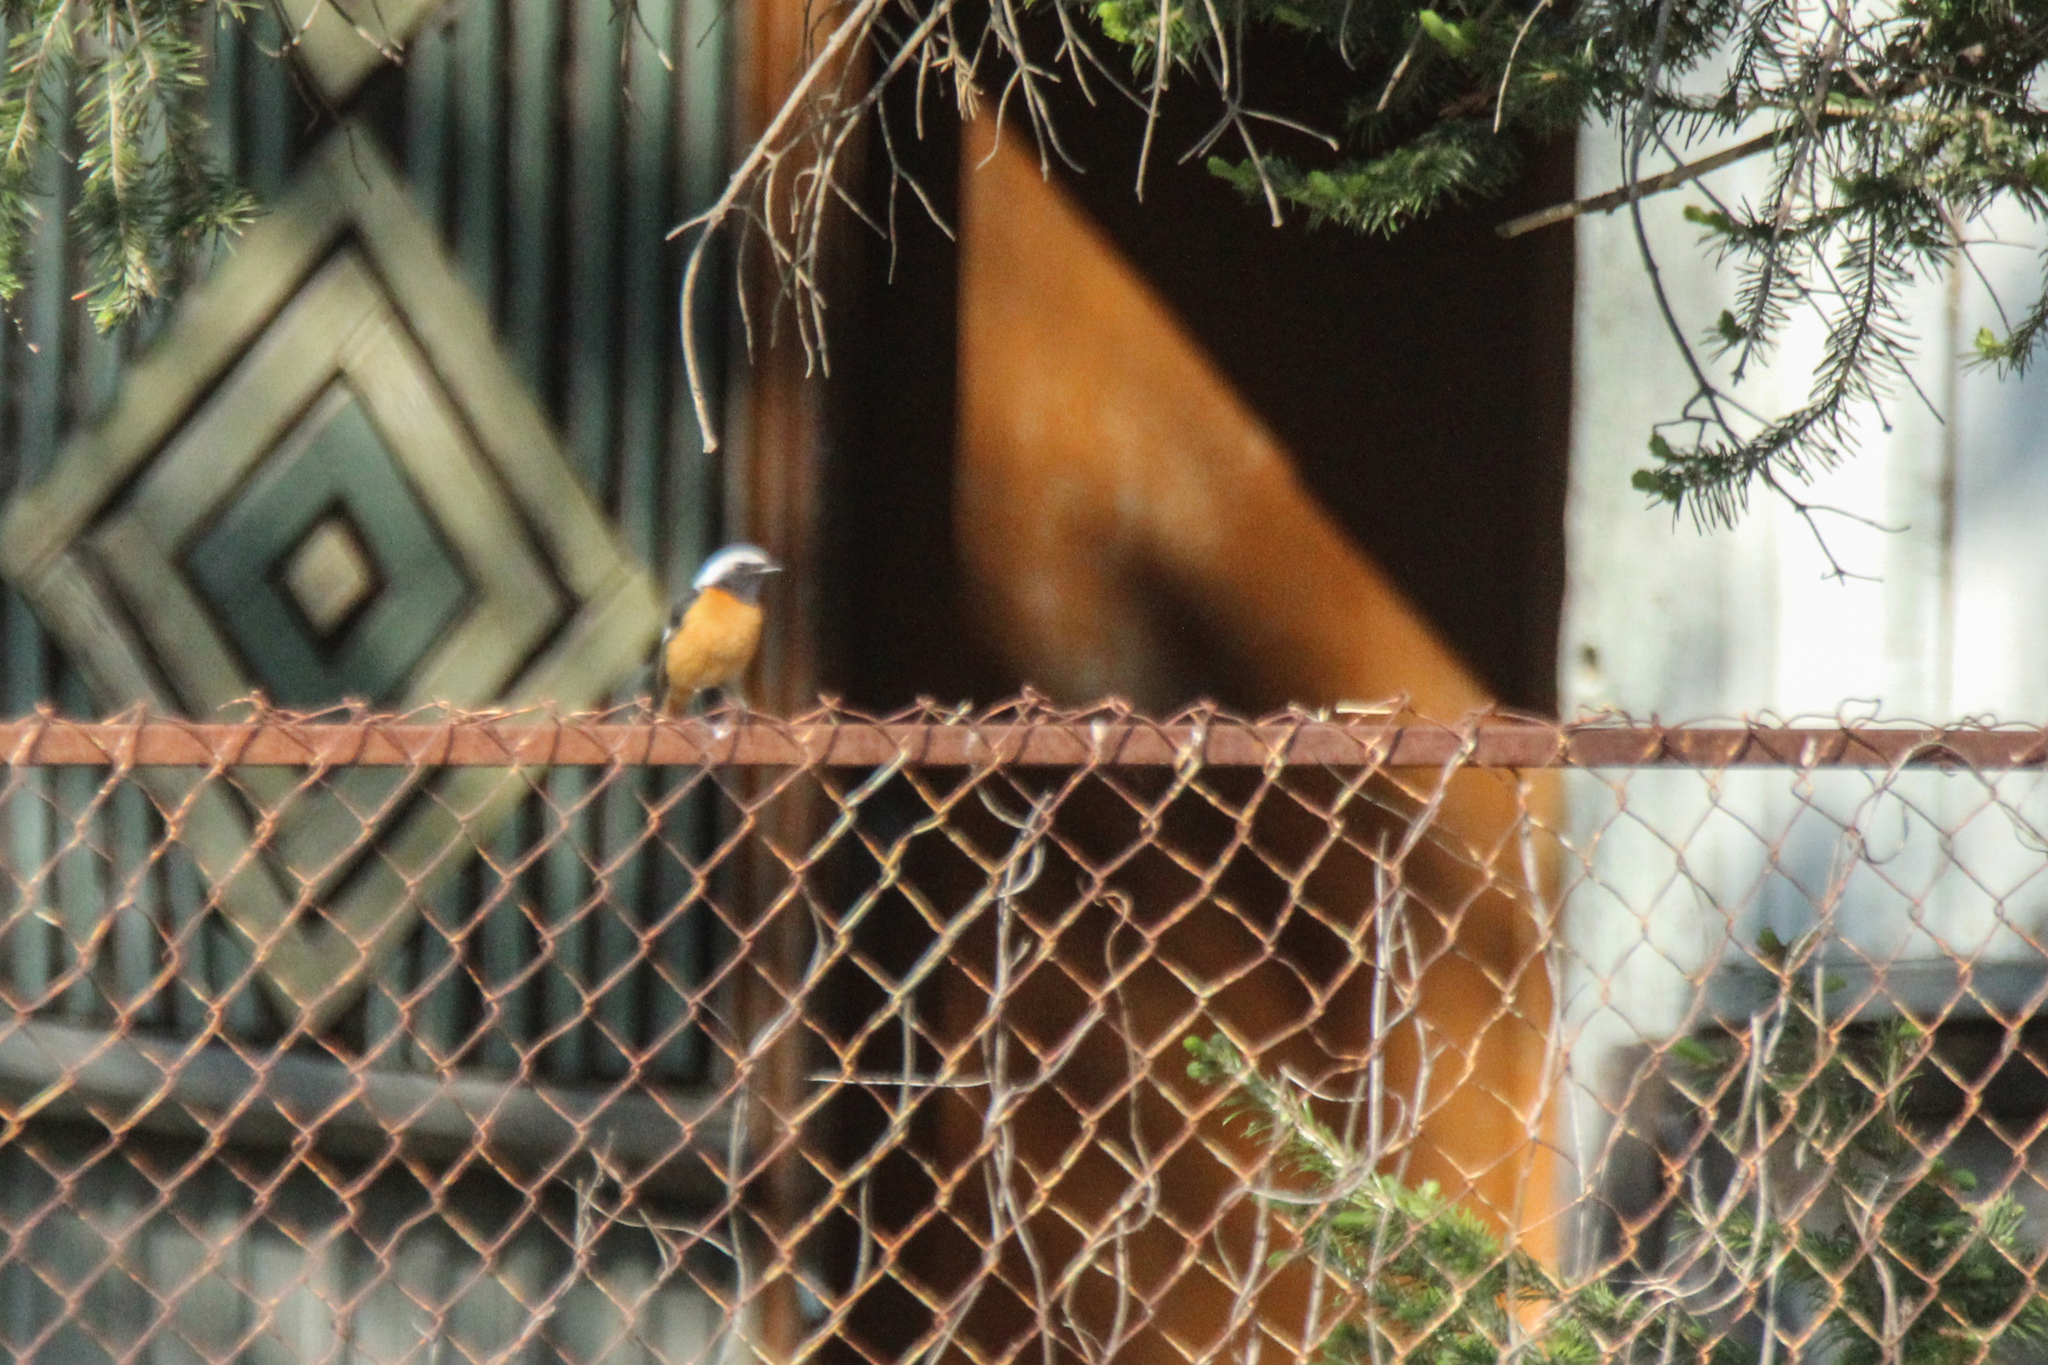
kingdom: Animalia
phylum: Chordata
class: Aves
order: Passeriformes
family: Muscicapidae
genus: Phoenicurus
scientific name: Phoenicurus auroreus
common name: Daurian redstart
